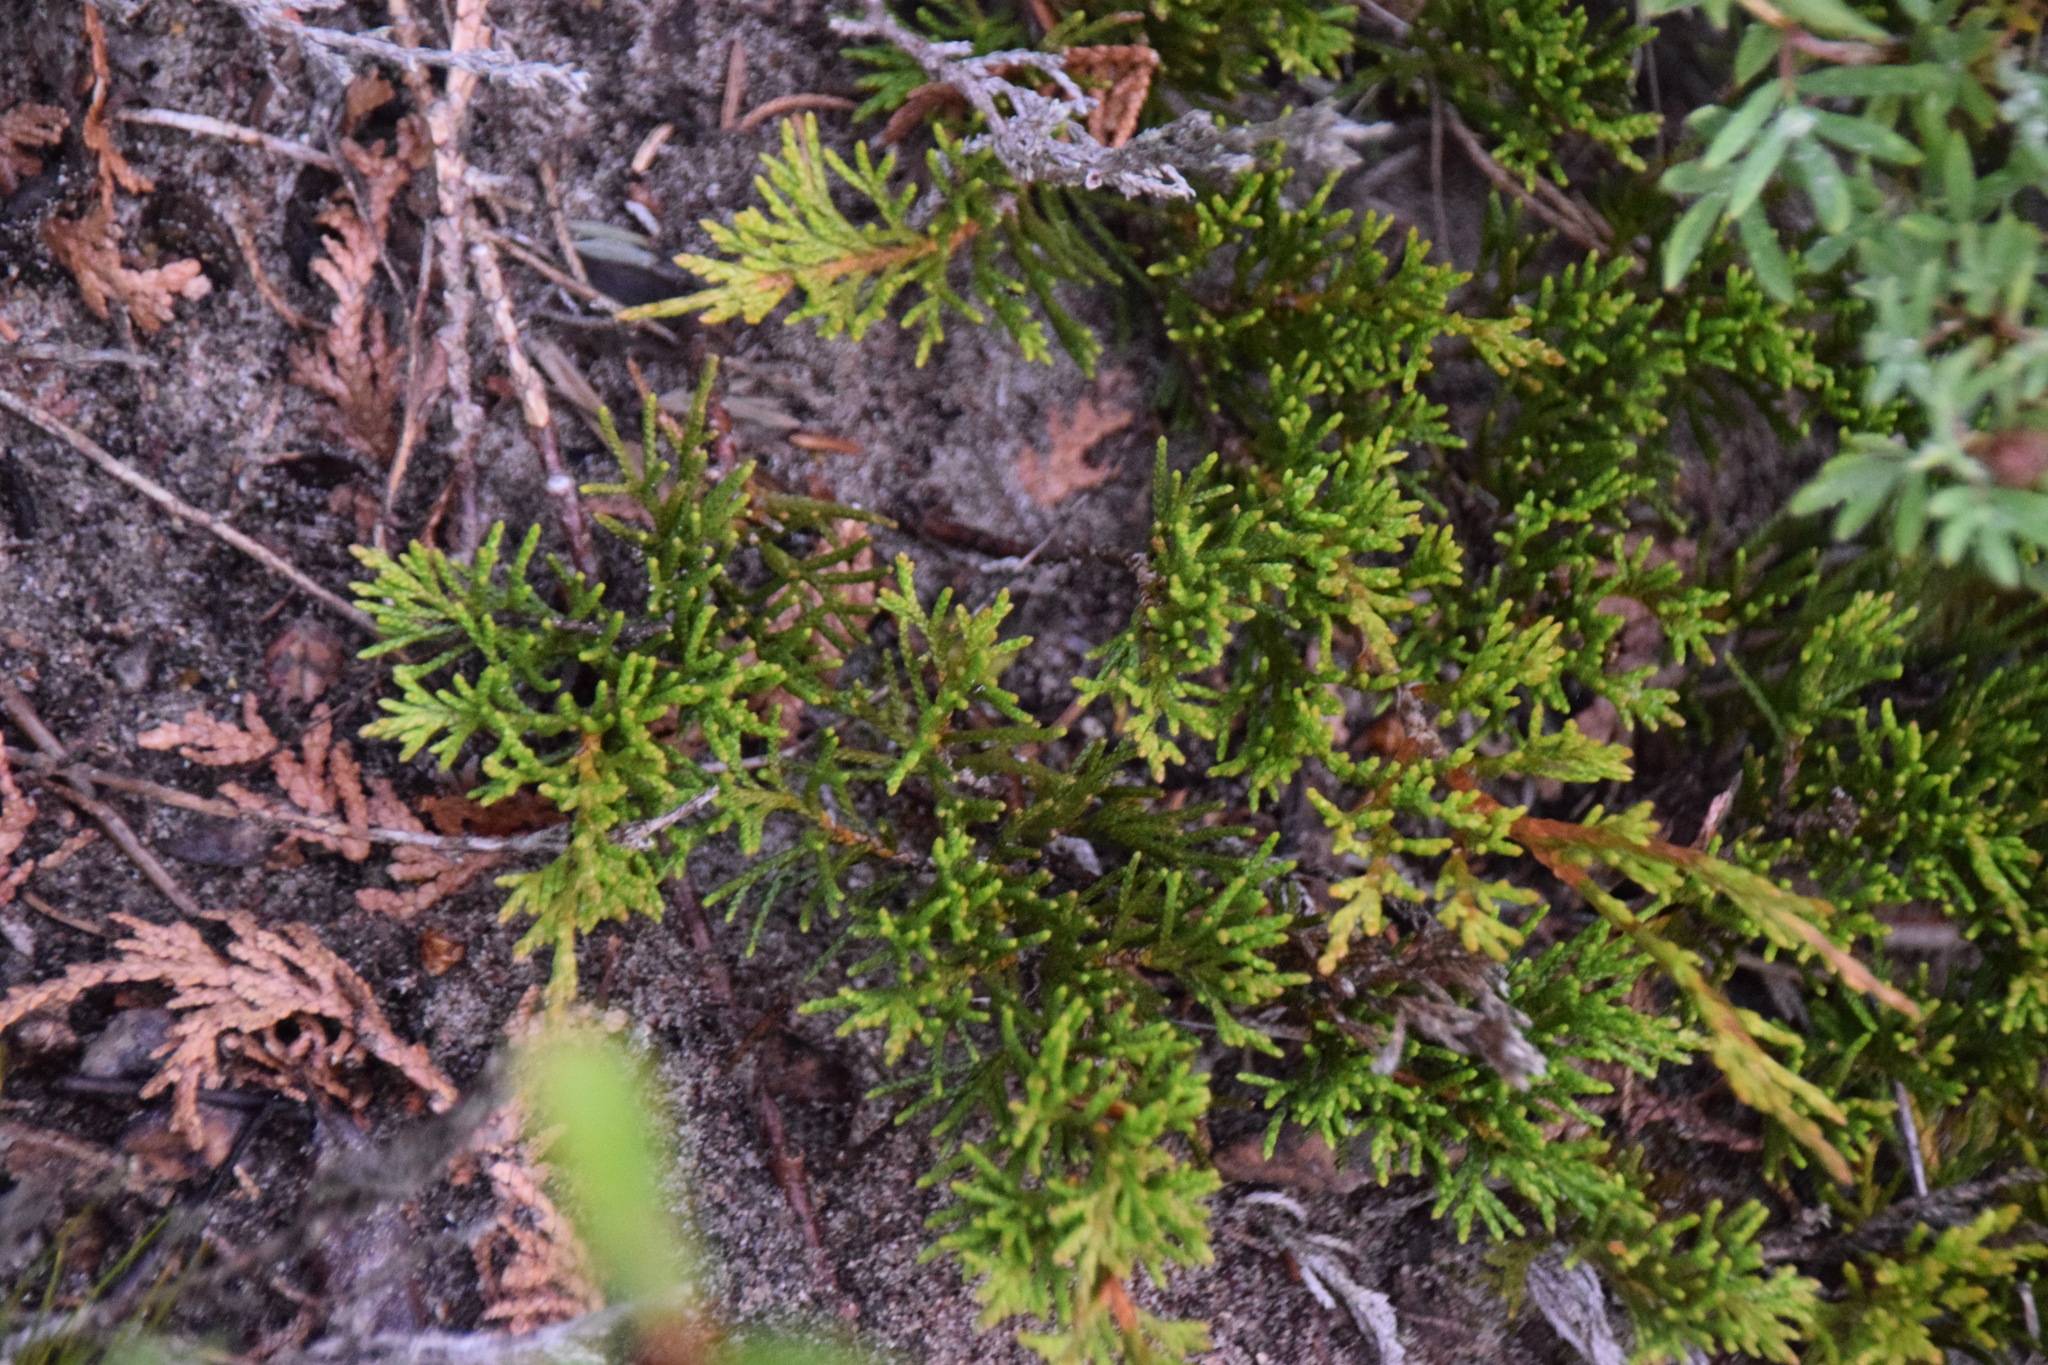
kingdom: Plantae
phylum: Tracheophyta
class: Pinopsida
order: Pinales
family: Cupressaceae
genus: Juniperus
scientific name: Juniperus horizontalis
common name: Creeping juniper
